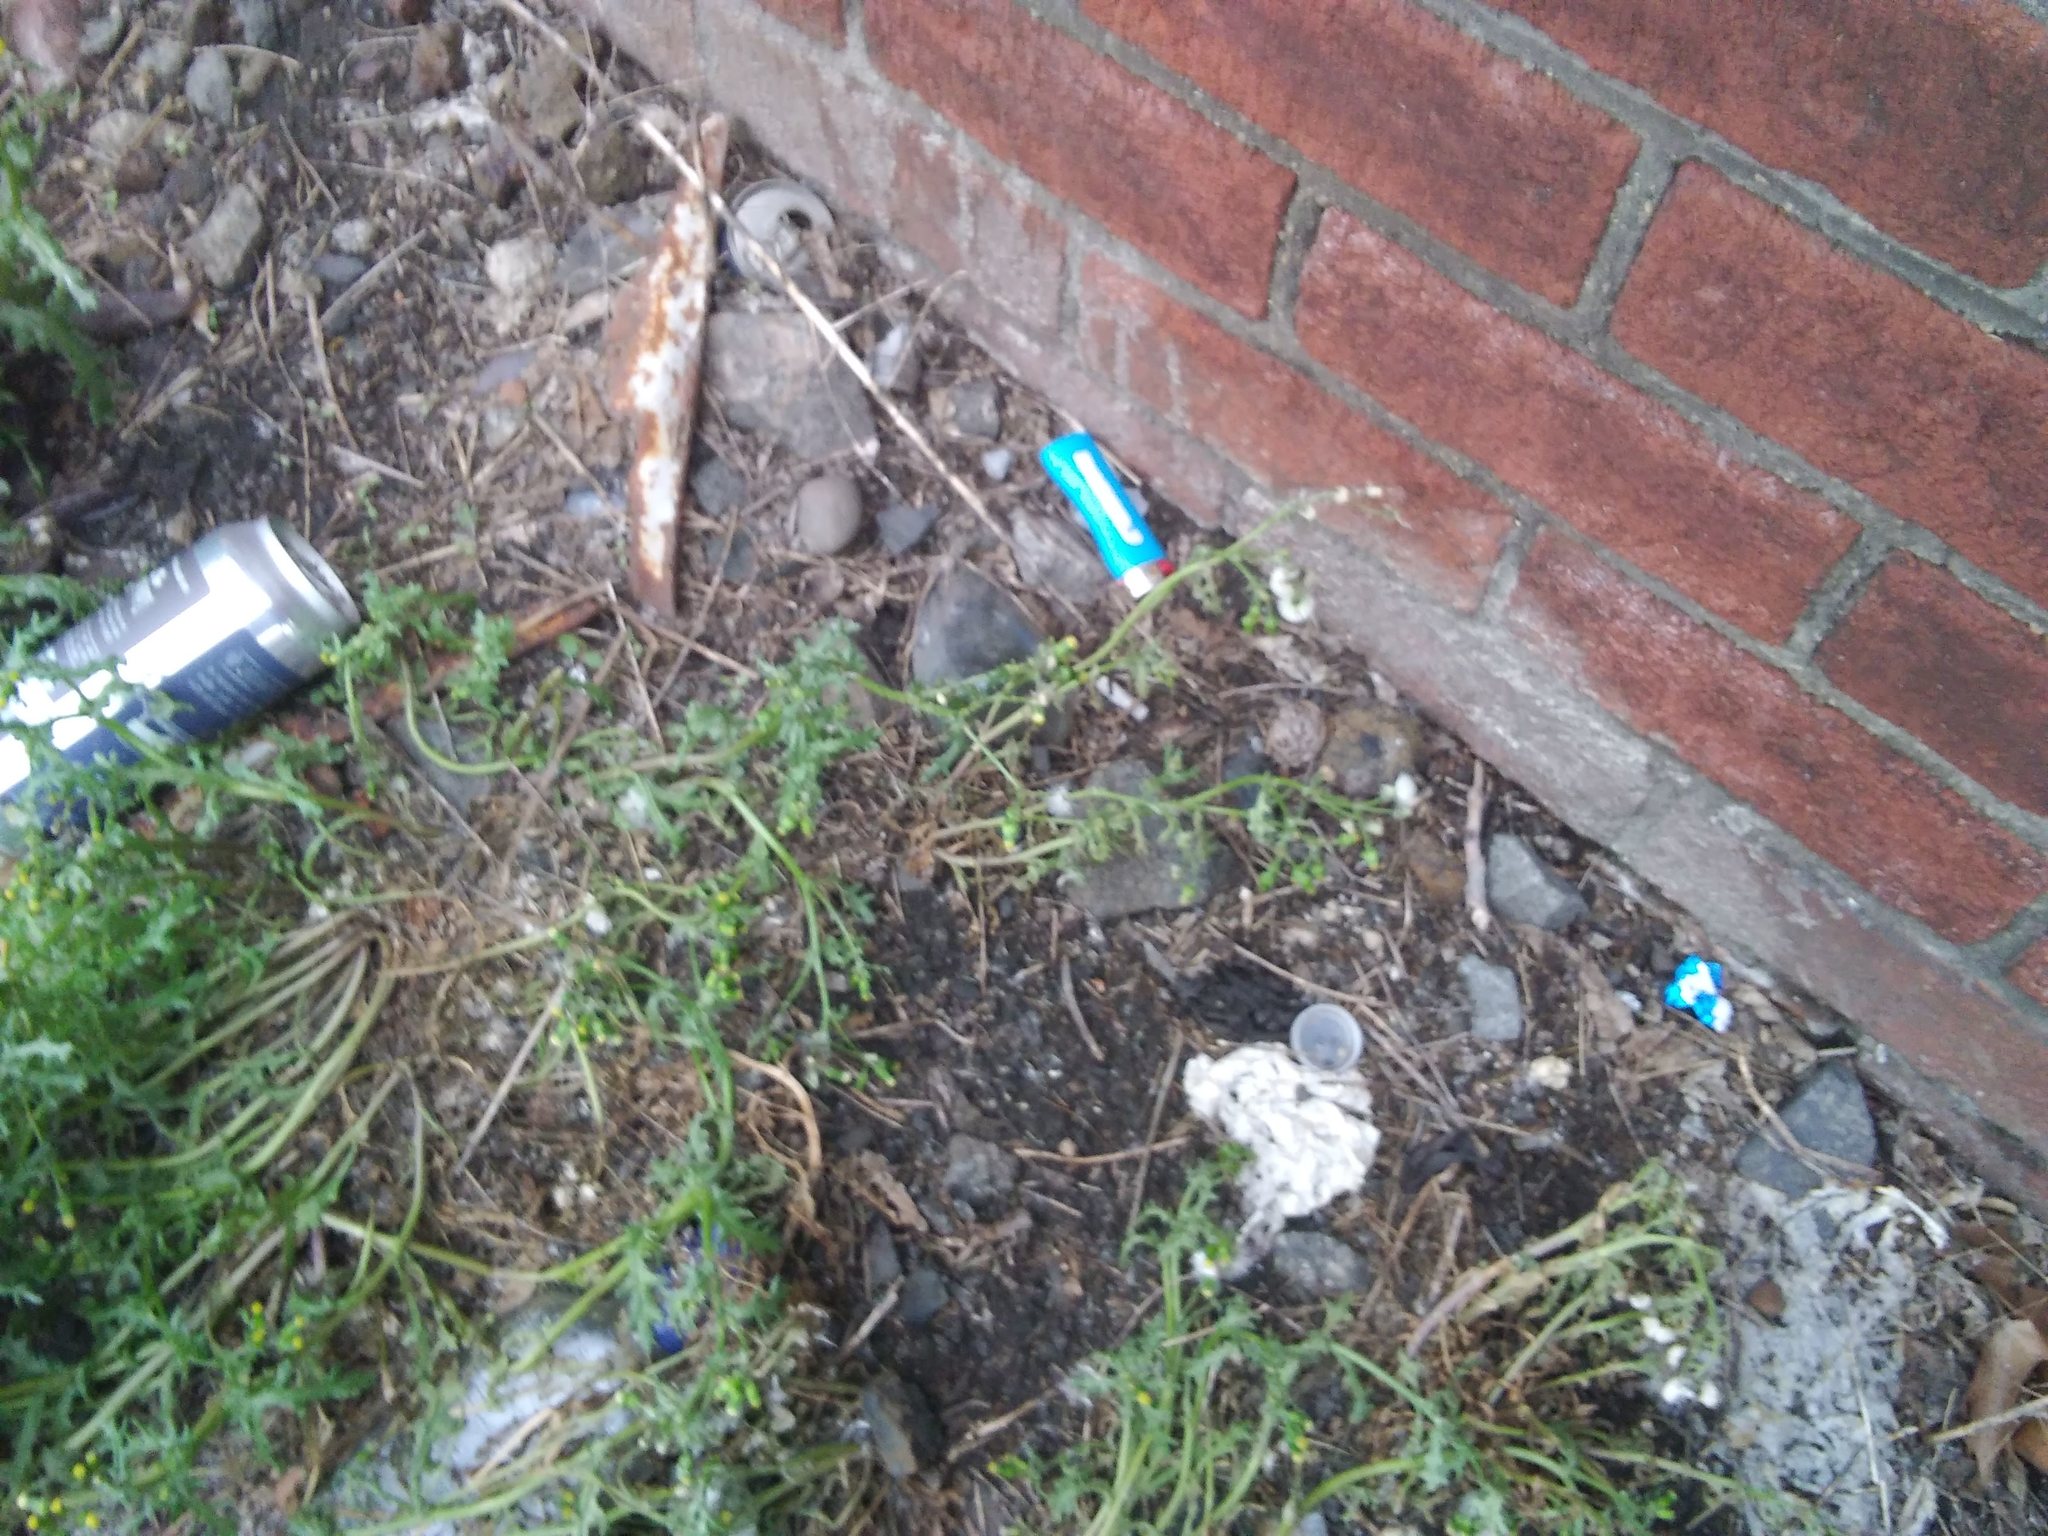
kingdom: Plantae
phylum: Tracheophyta
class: Magnoliopsida
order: Asterales
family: Asteraceae
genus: Senecio
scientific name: Senecio vulgaris
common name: Old-man-in-the-spring
